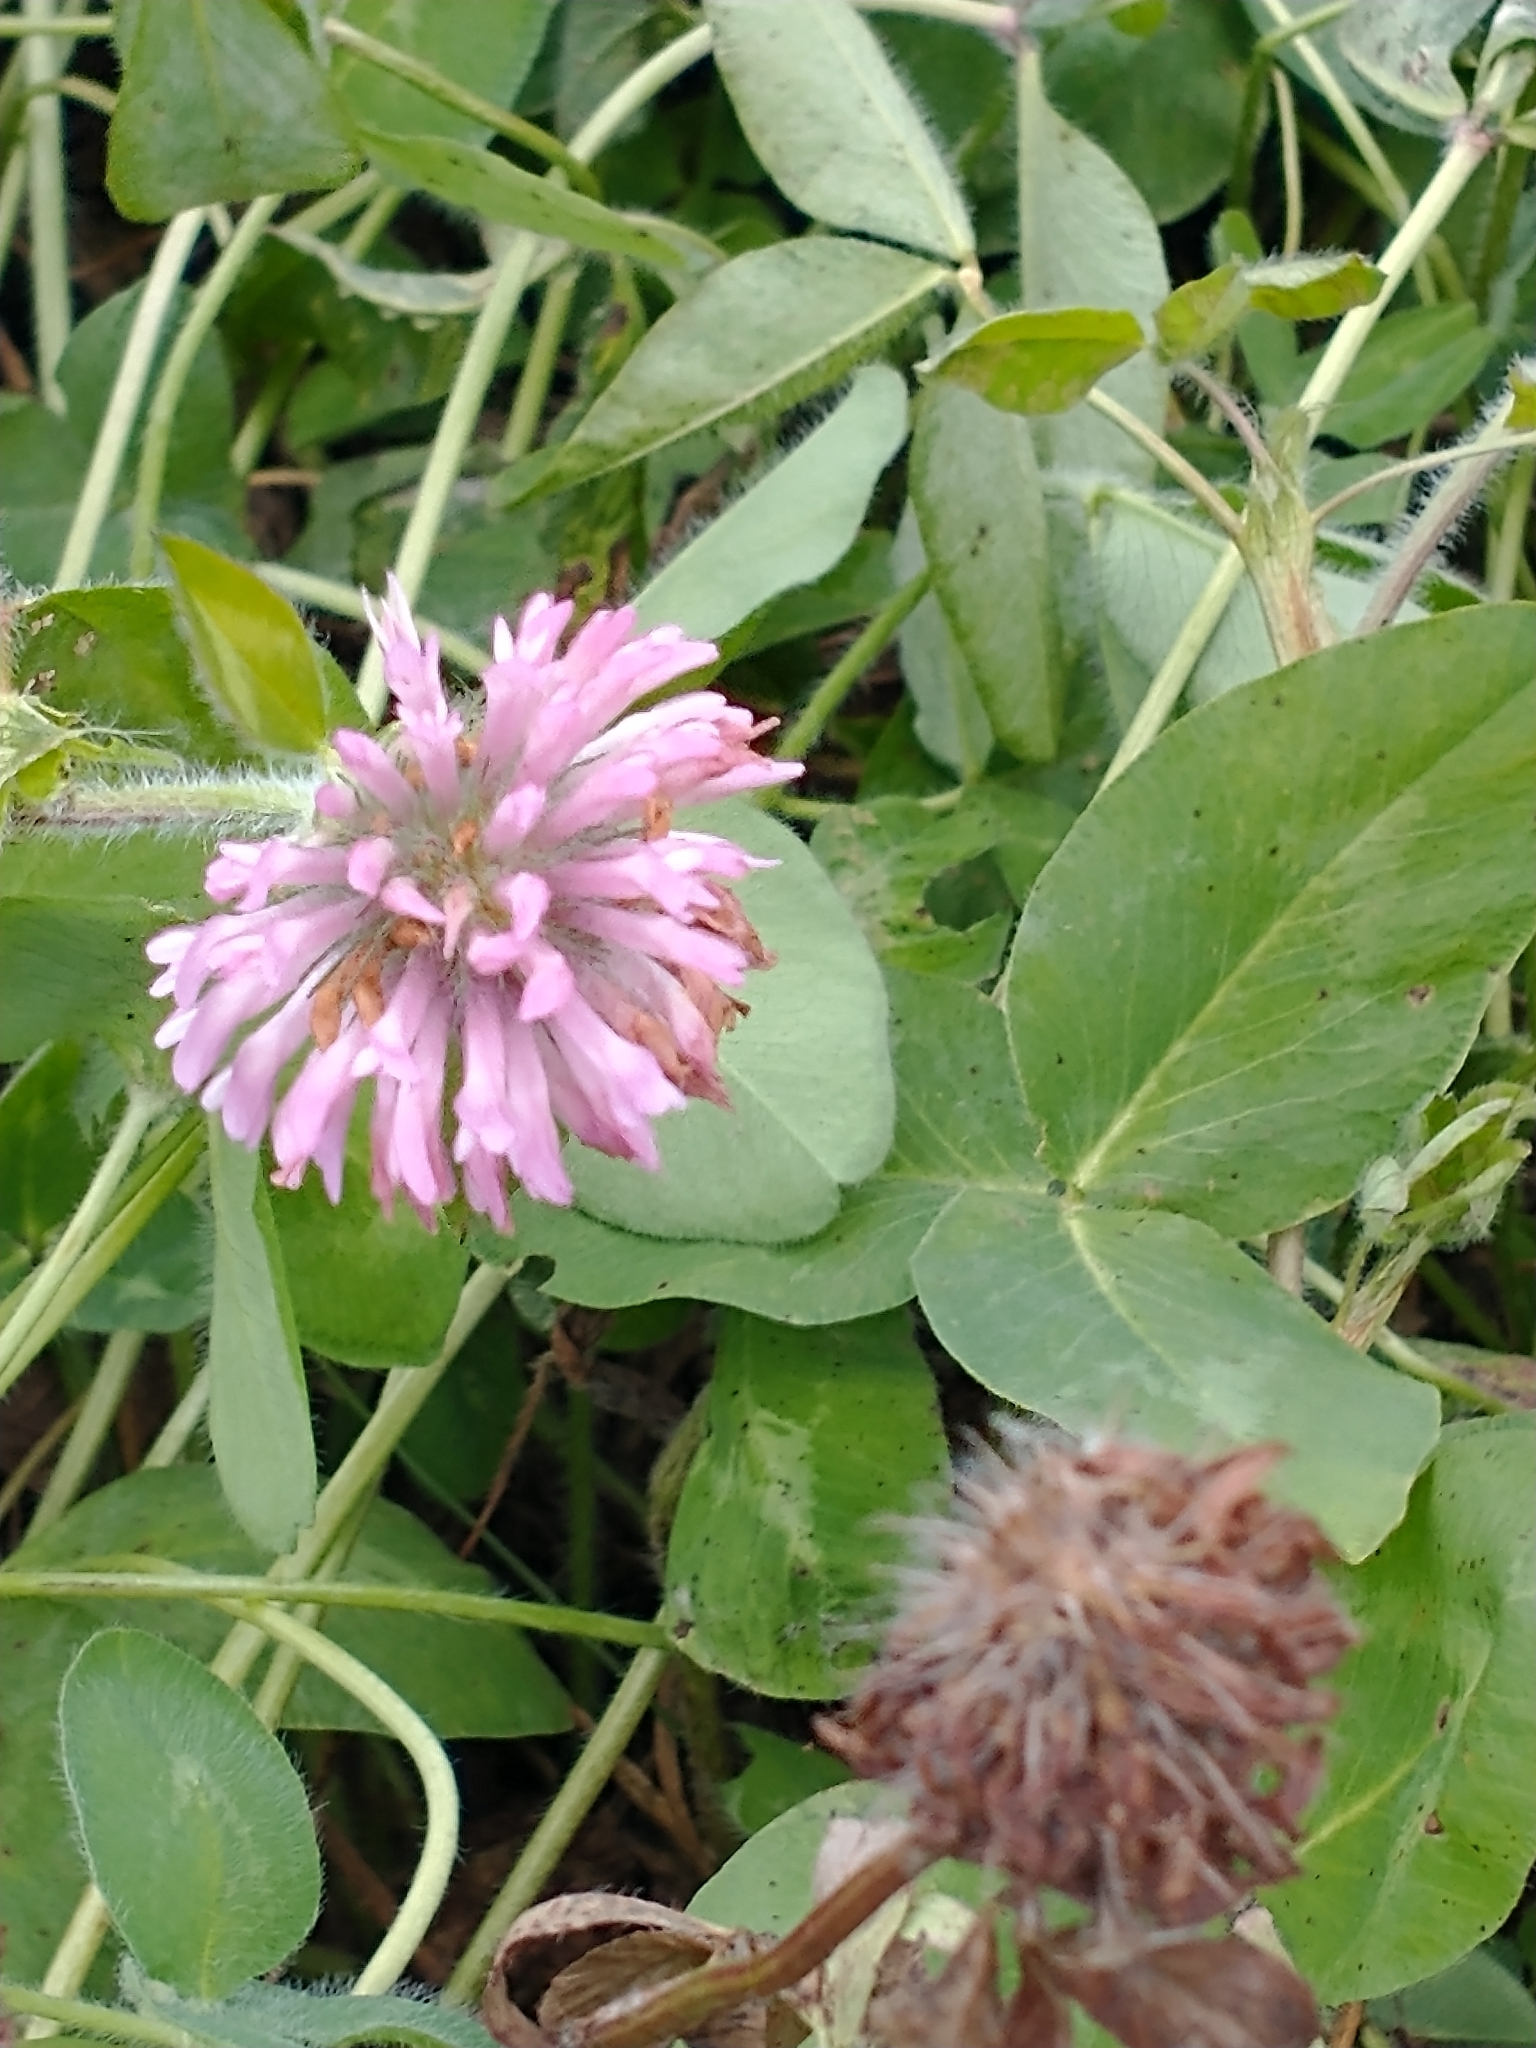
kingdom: Plantae
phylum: Tracheophyta
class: Magnoliopsida
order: Fabales
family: Fabaceae
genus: Trifolium
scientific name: Trifolium pratense
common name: Red clover
